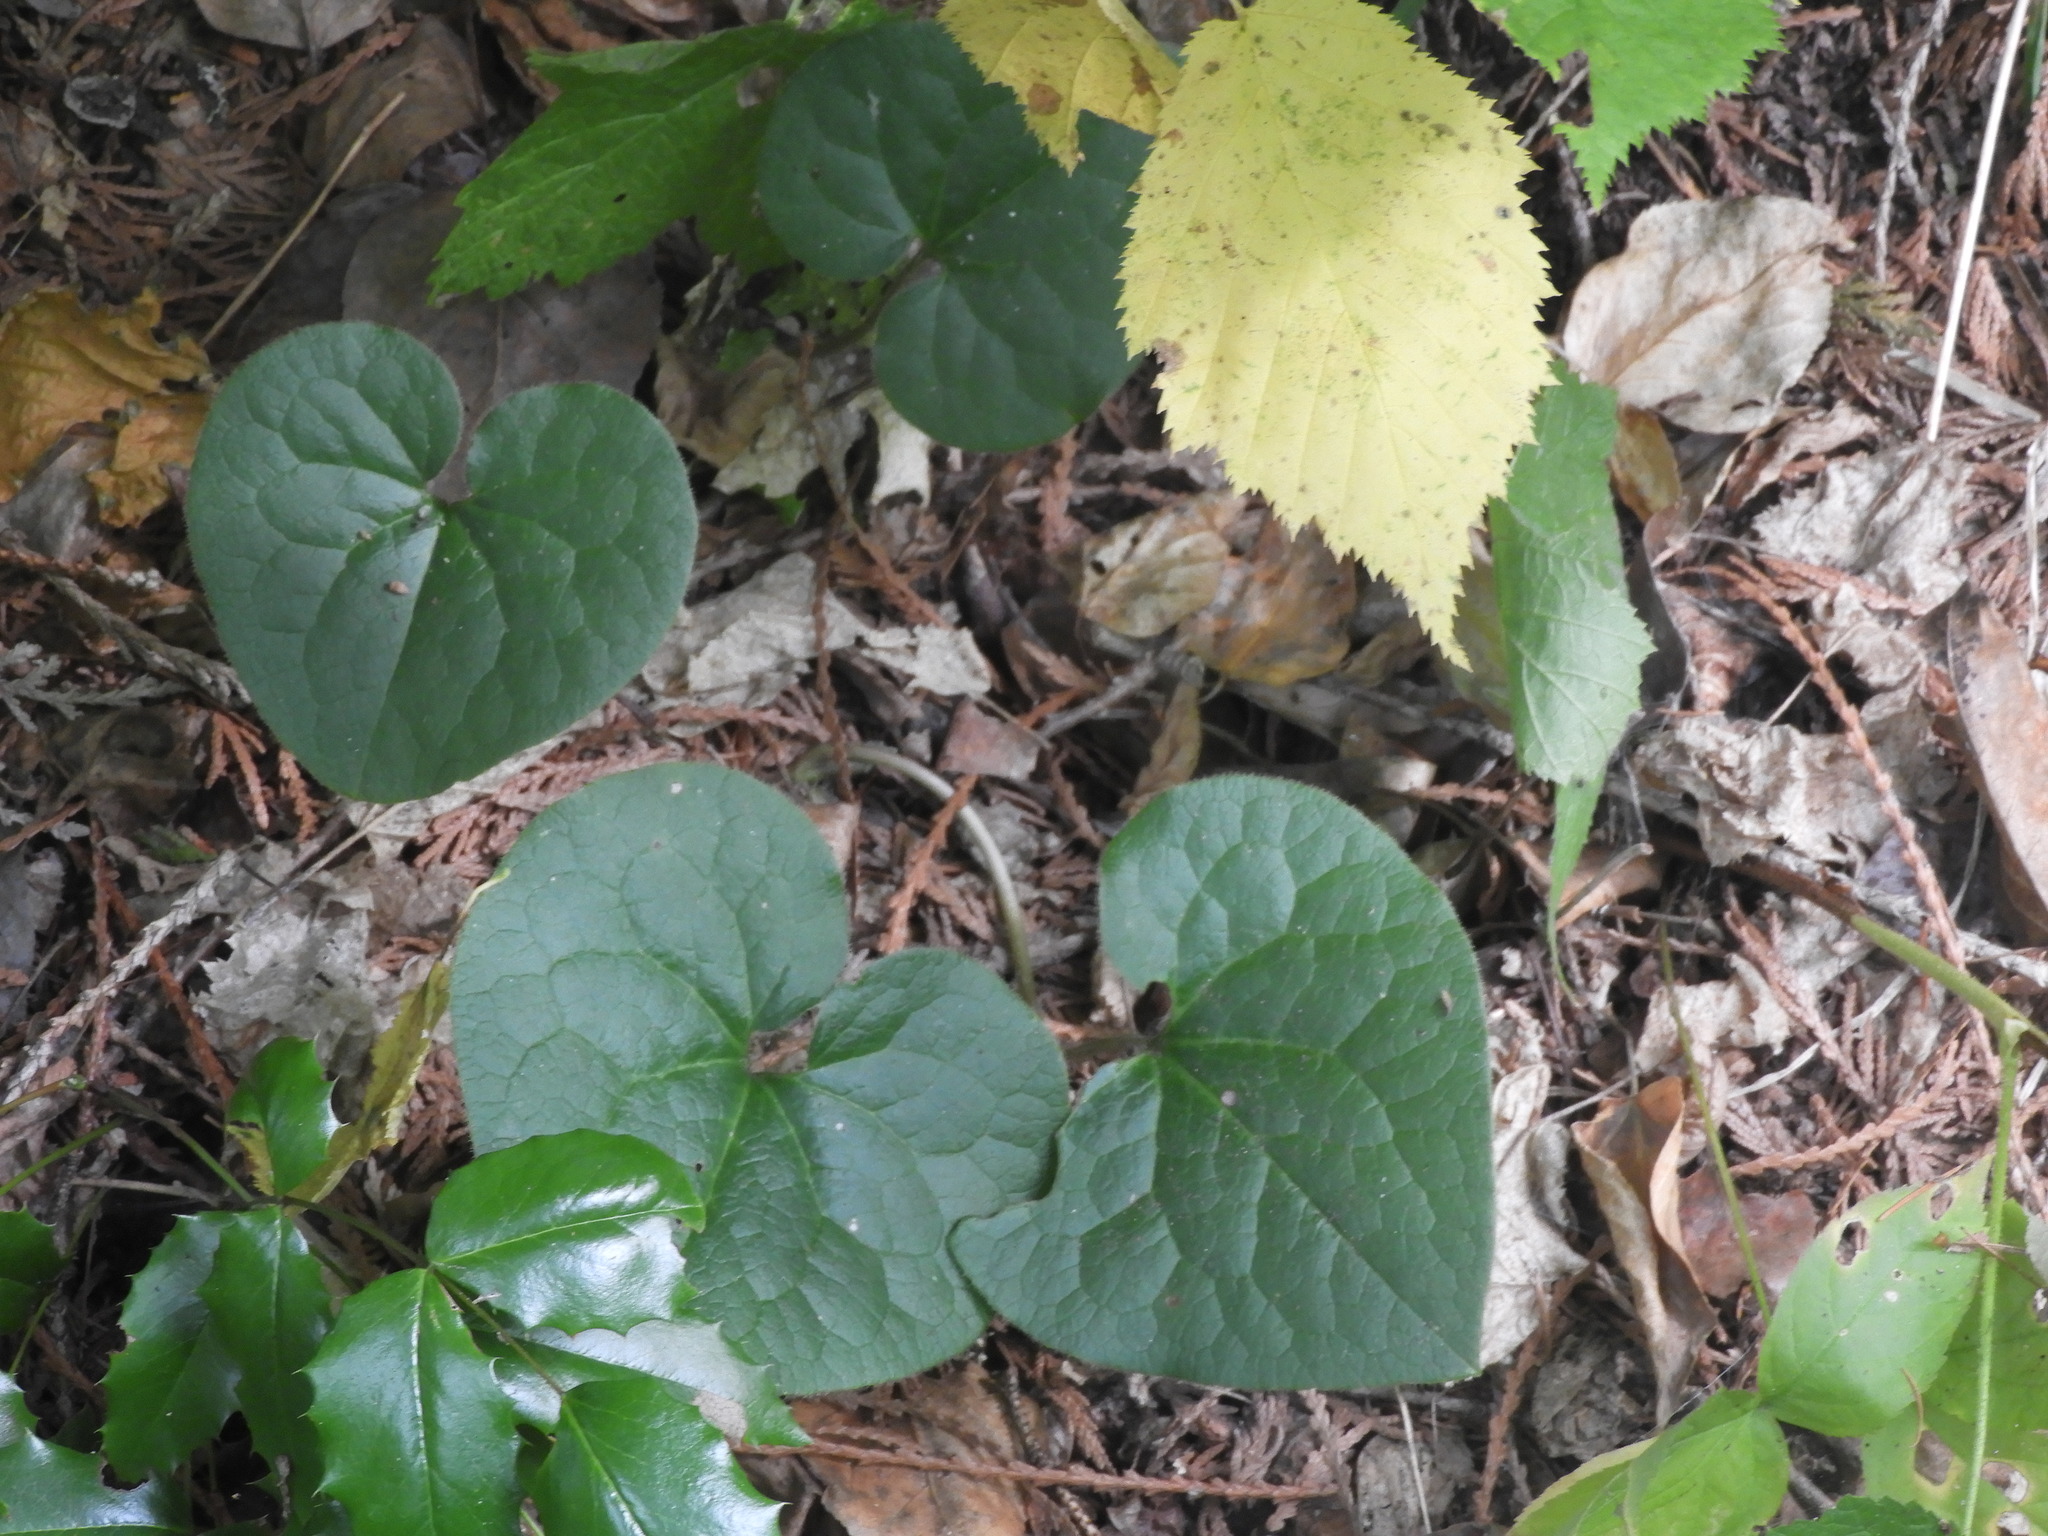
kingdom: Plantae
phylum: Tracheophyta
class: Magnoliopsida
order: Piperales
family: Aristolochiaceae
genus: Asarum
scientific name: Asarum caudatum
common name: Wild ginger
